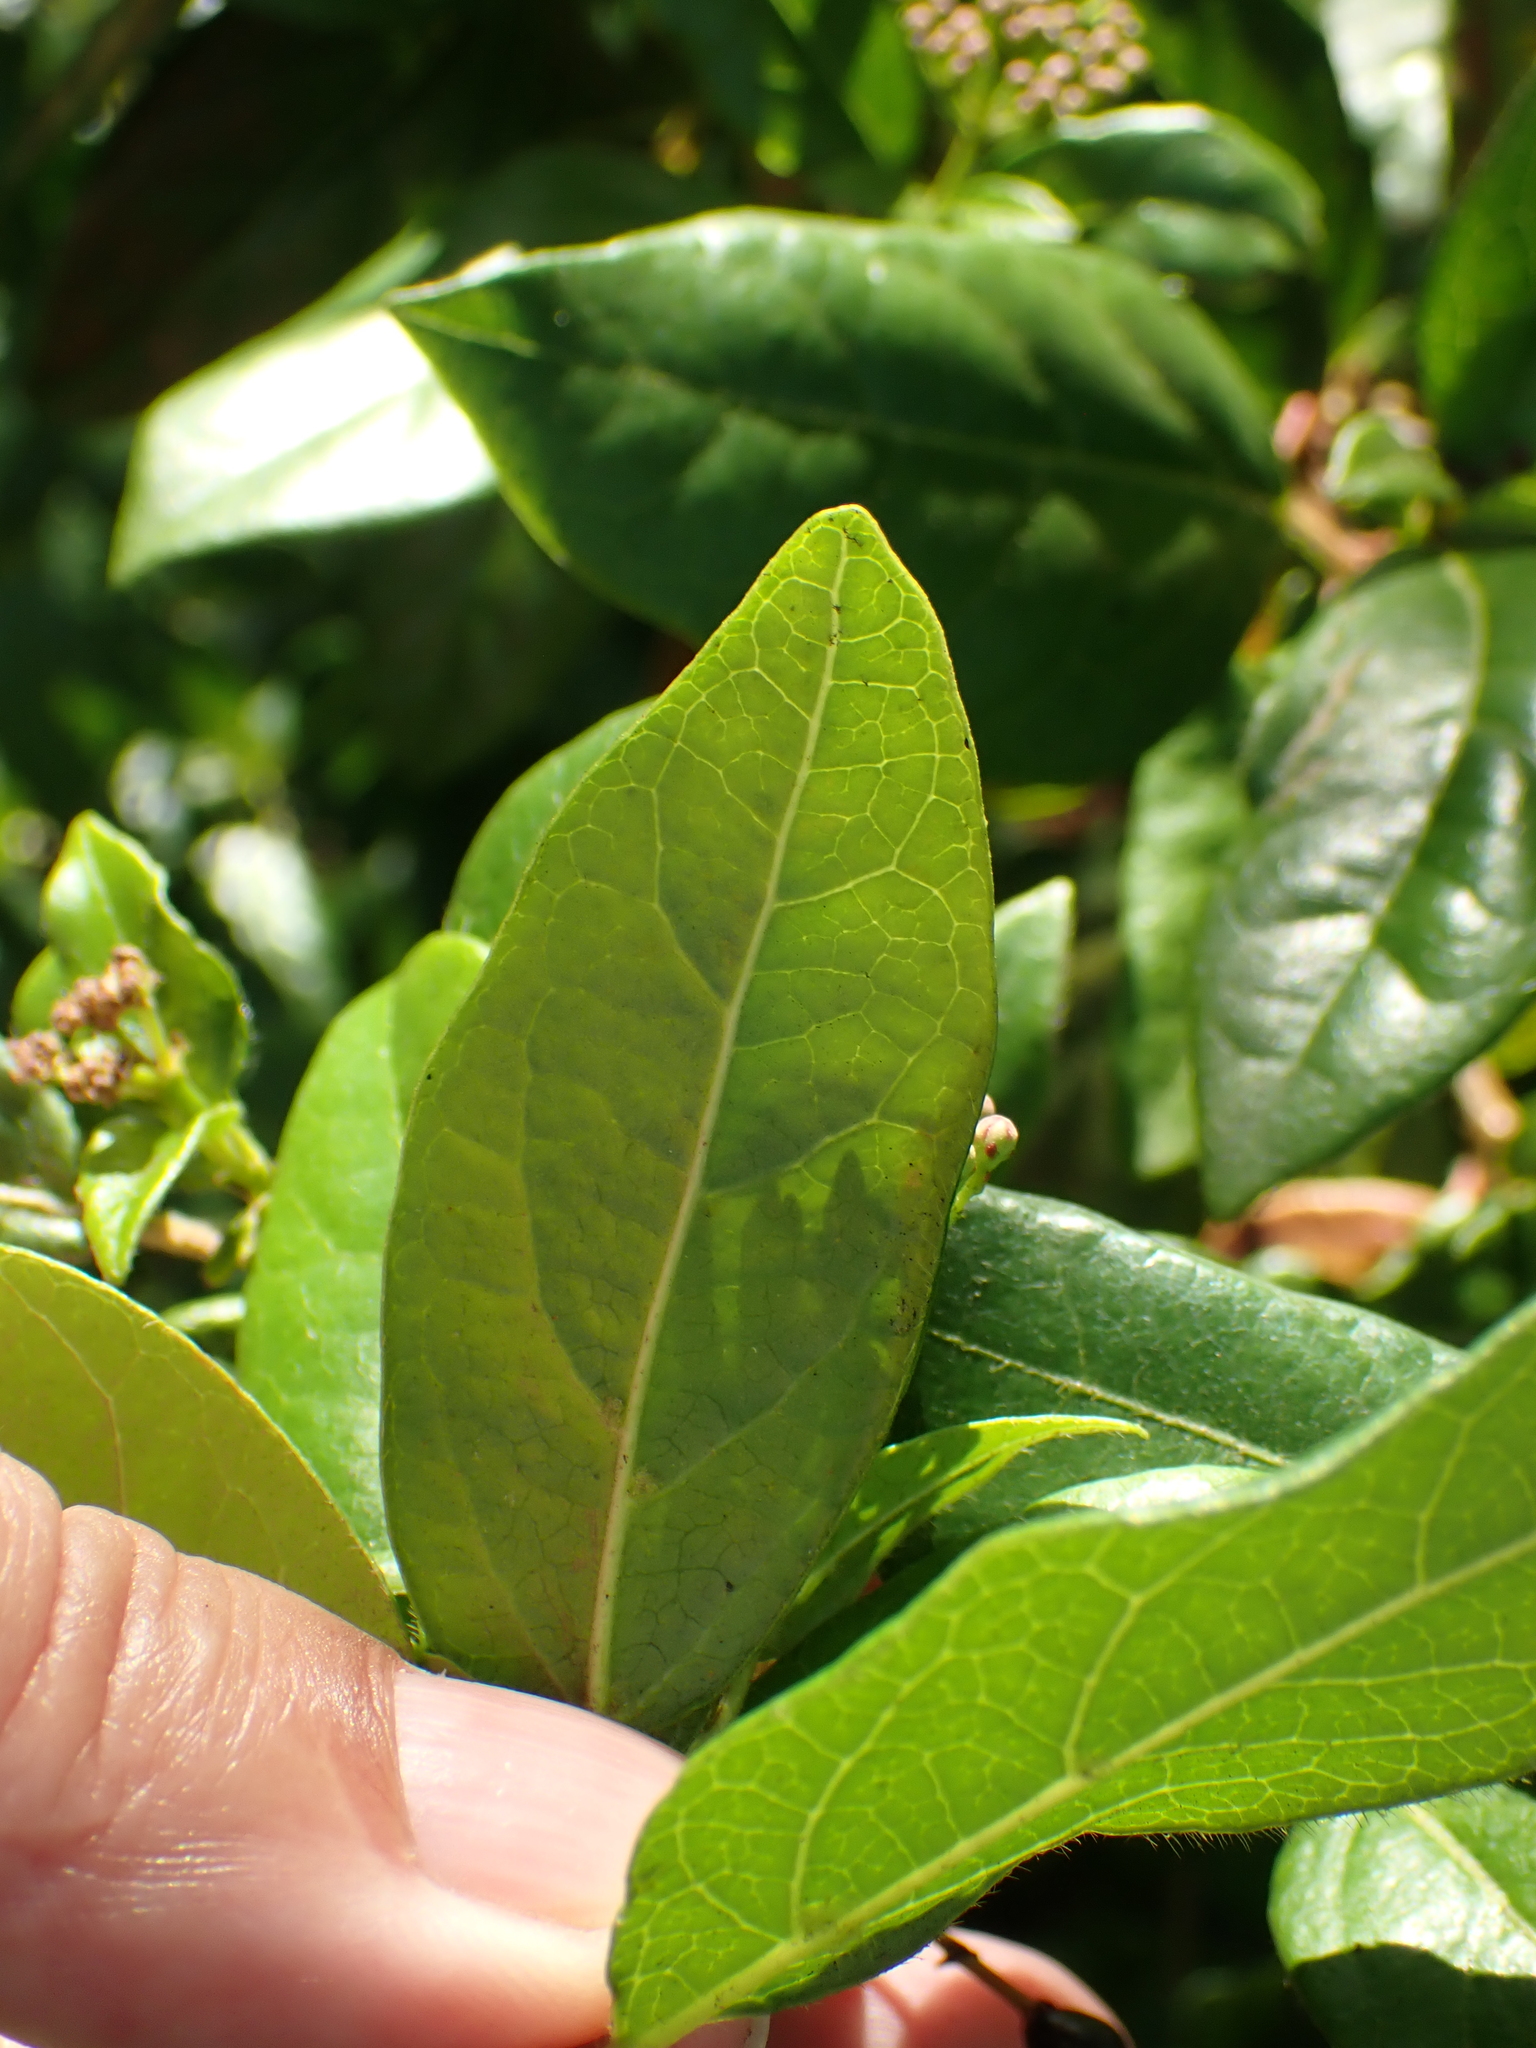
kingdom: Plantae
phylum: Tracheophyta
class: Magnoliopsida
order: Dipsacales
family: Viburnaceae
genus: Viburnum
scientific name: Viburnum tinus
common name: Laurustinus
